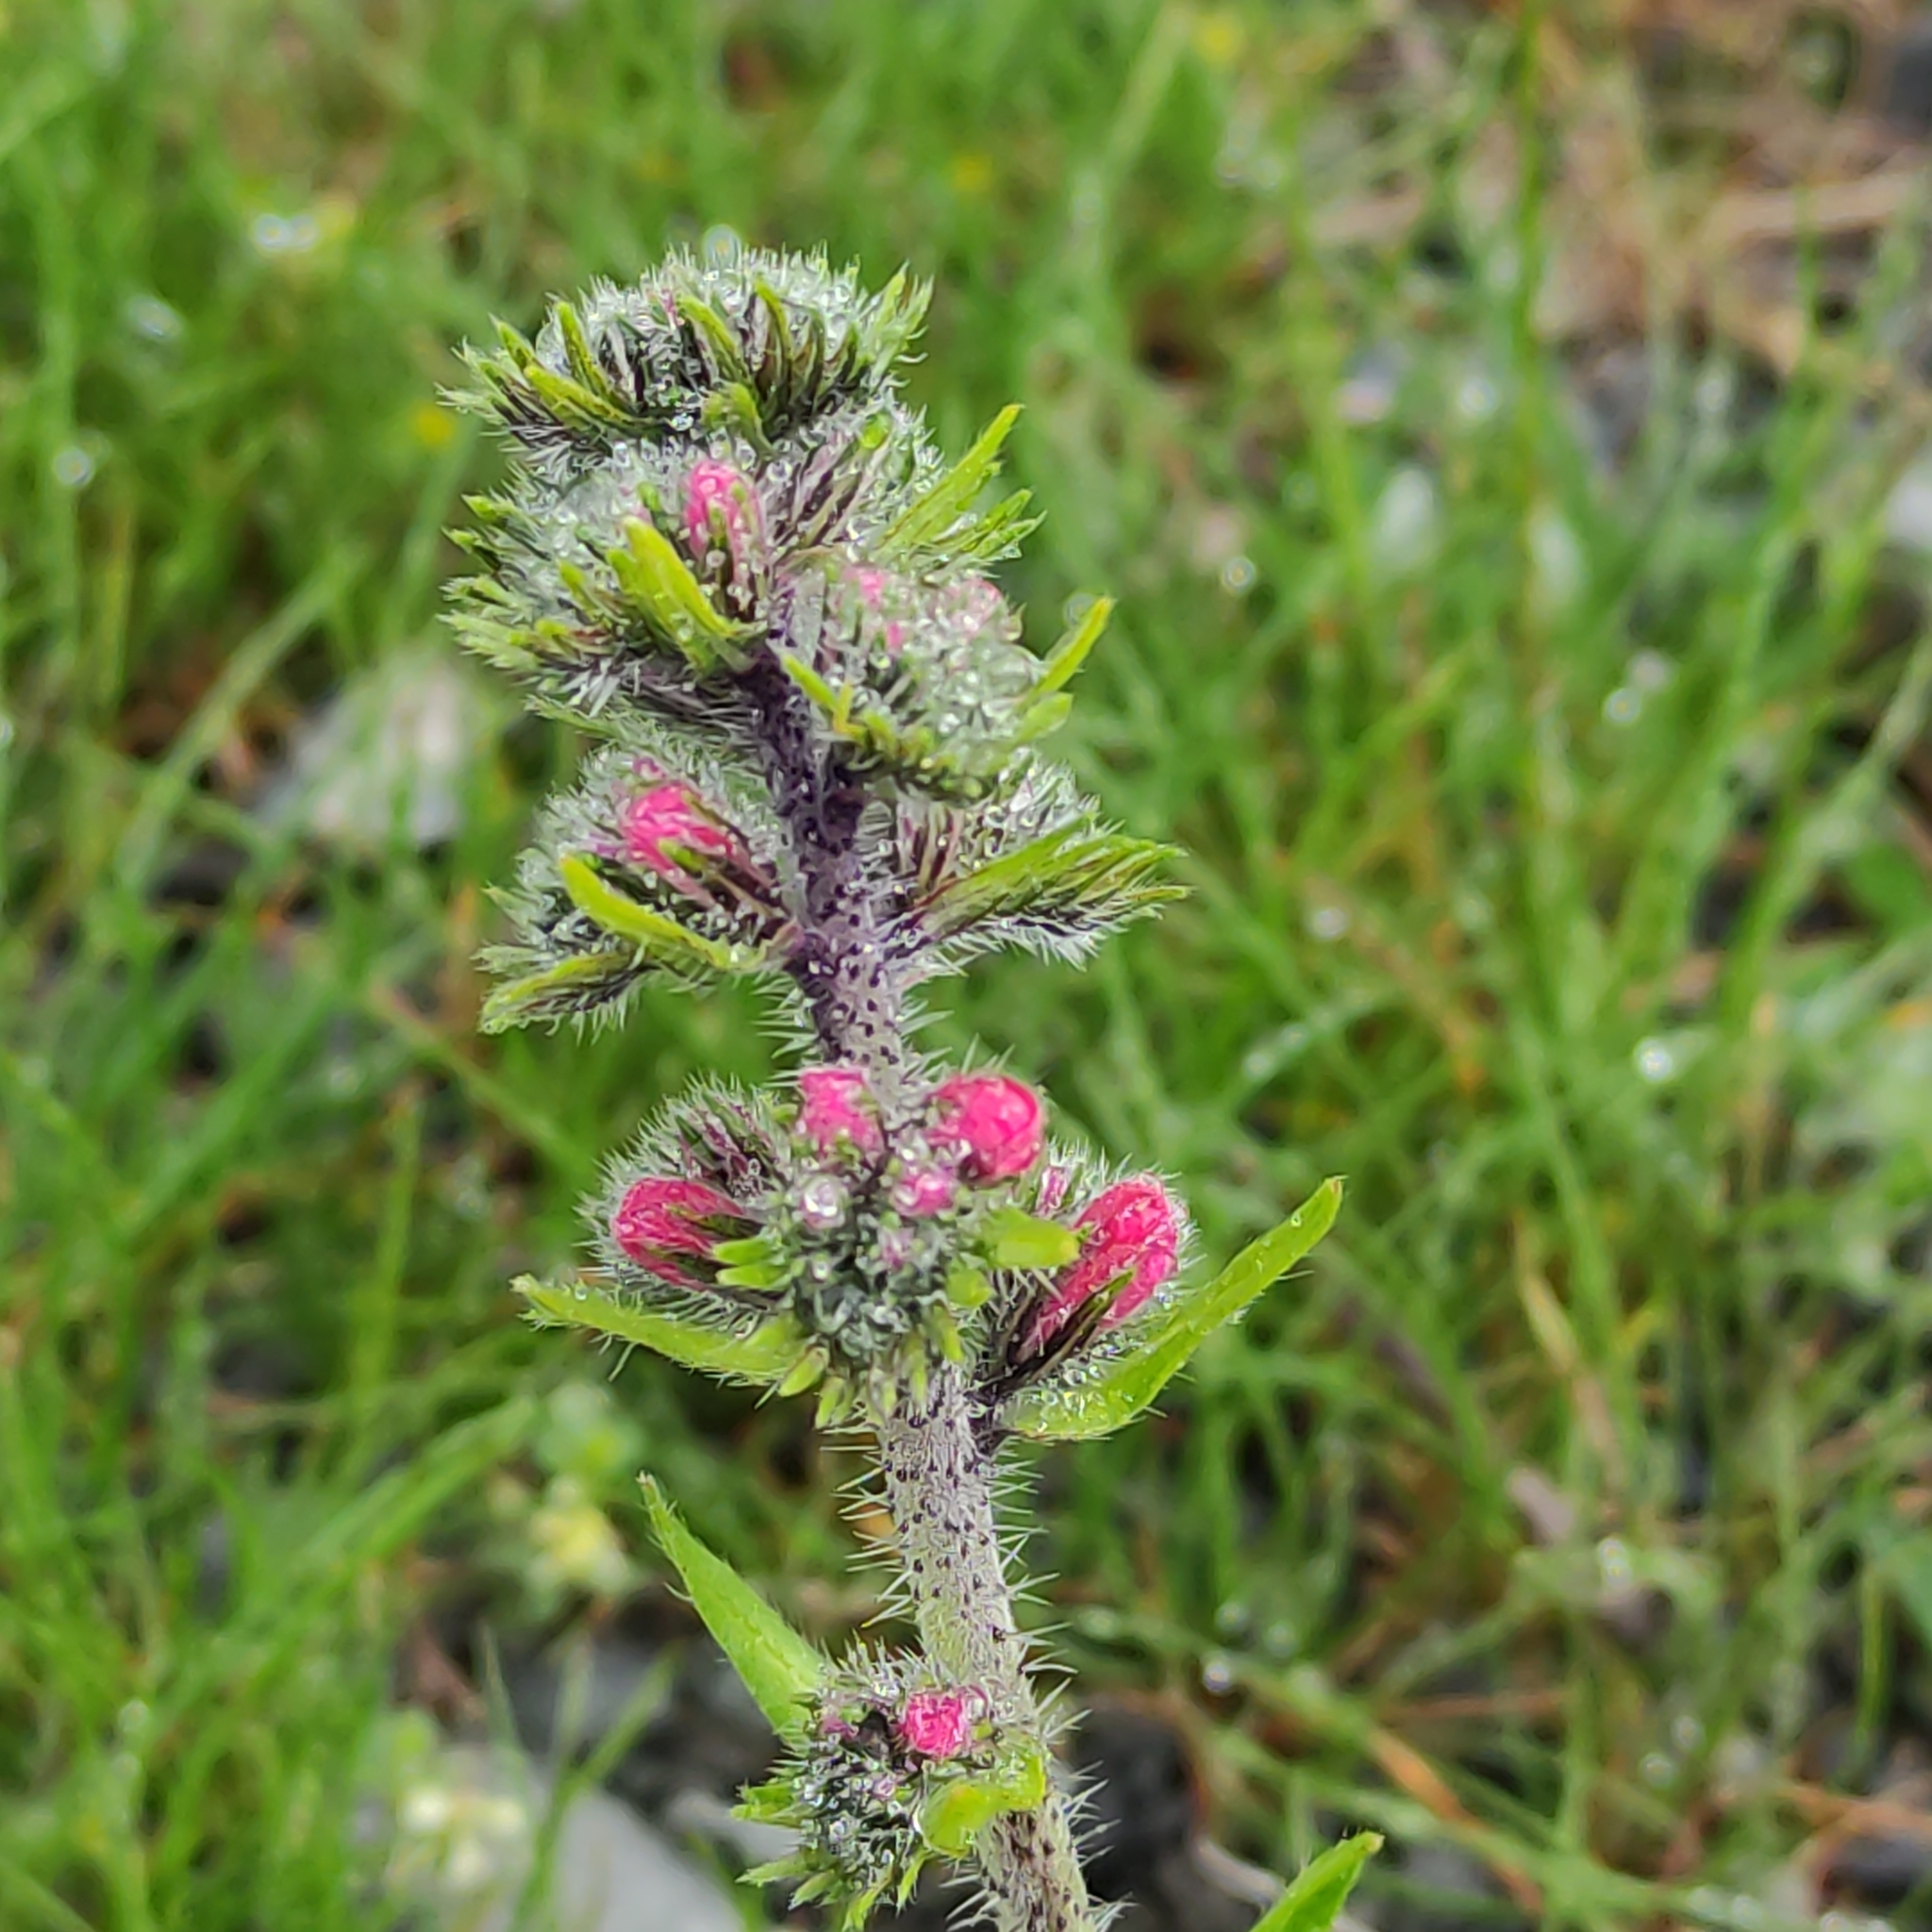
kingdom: Plantae
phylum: Tracheophyta
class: Magnoliopsida
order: Boraginales
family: Boraginaceae
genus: Echium
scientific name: Echium vulgare
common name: Common viper's bugloss
